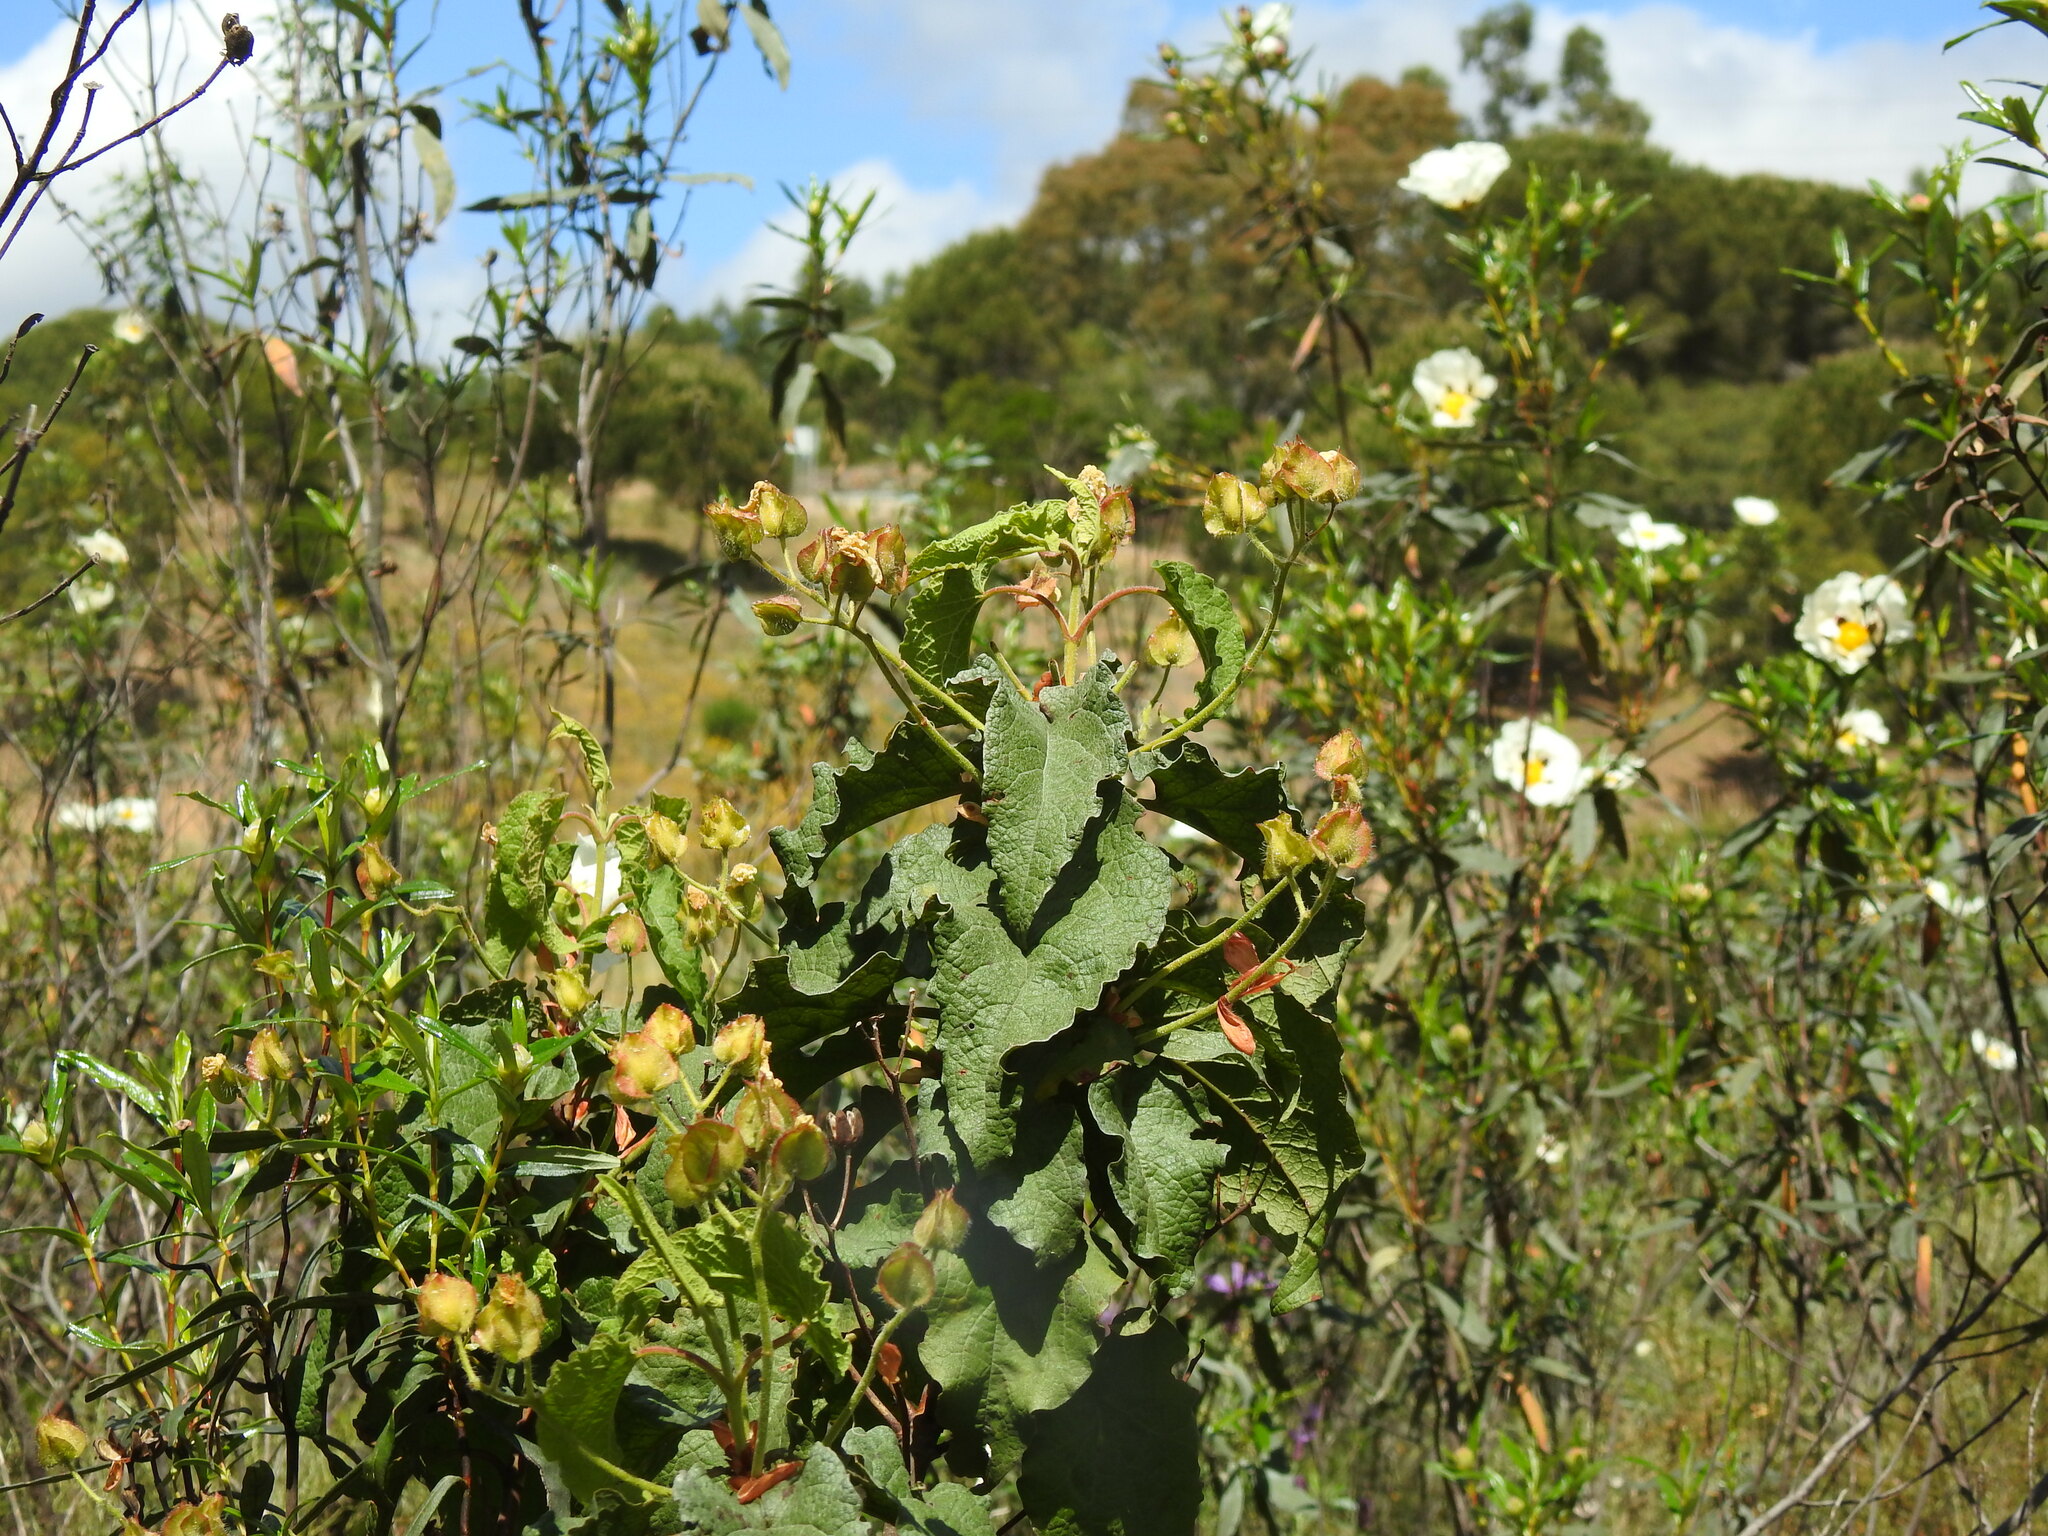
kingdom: Plantae
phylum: Tracheophyta
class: Magnoliopsida
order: Malvales
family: Cistaceae
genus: Cistus
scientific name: Cistus populifolius
